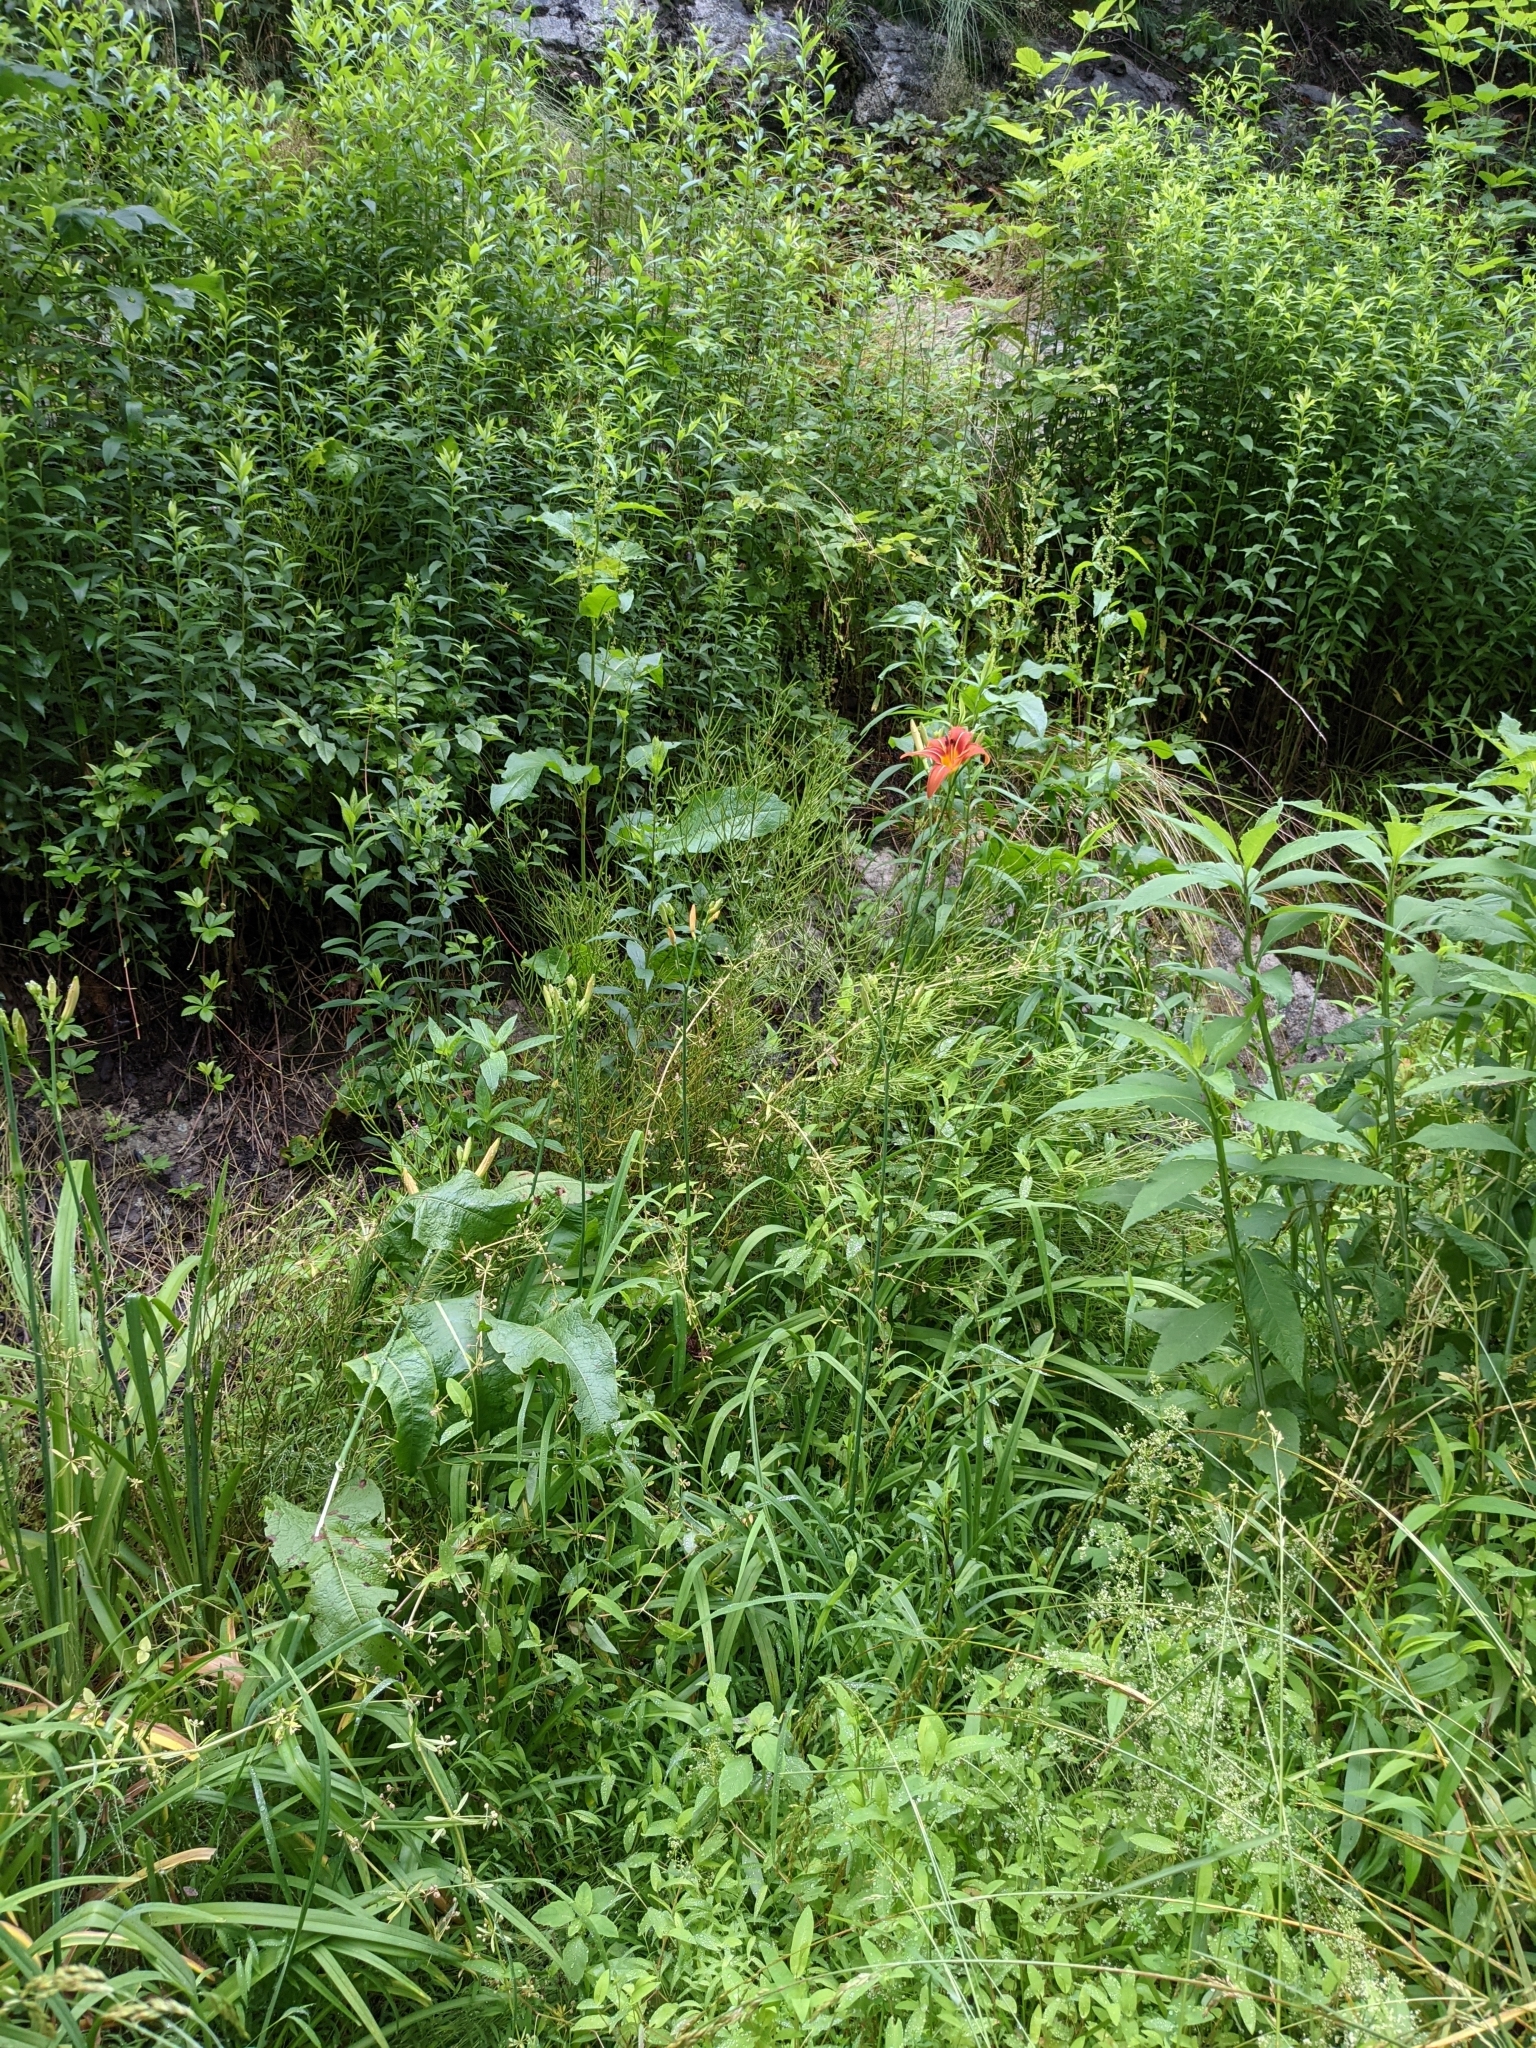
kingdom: Plantae
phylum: Tracheophyta
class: Liliopsida
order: Asparagales
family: Asphodelaceae
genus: Hemerocallis
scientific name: Hemerocallis fulva
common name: Orange day-lily
